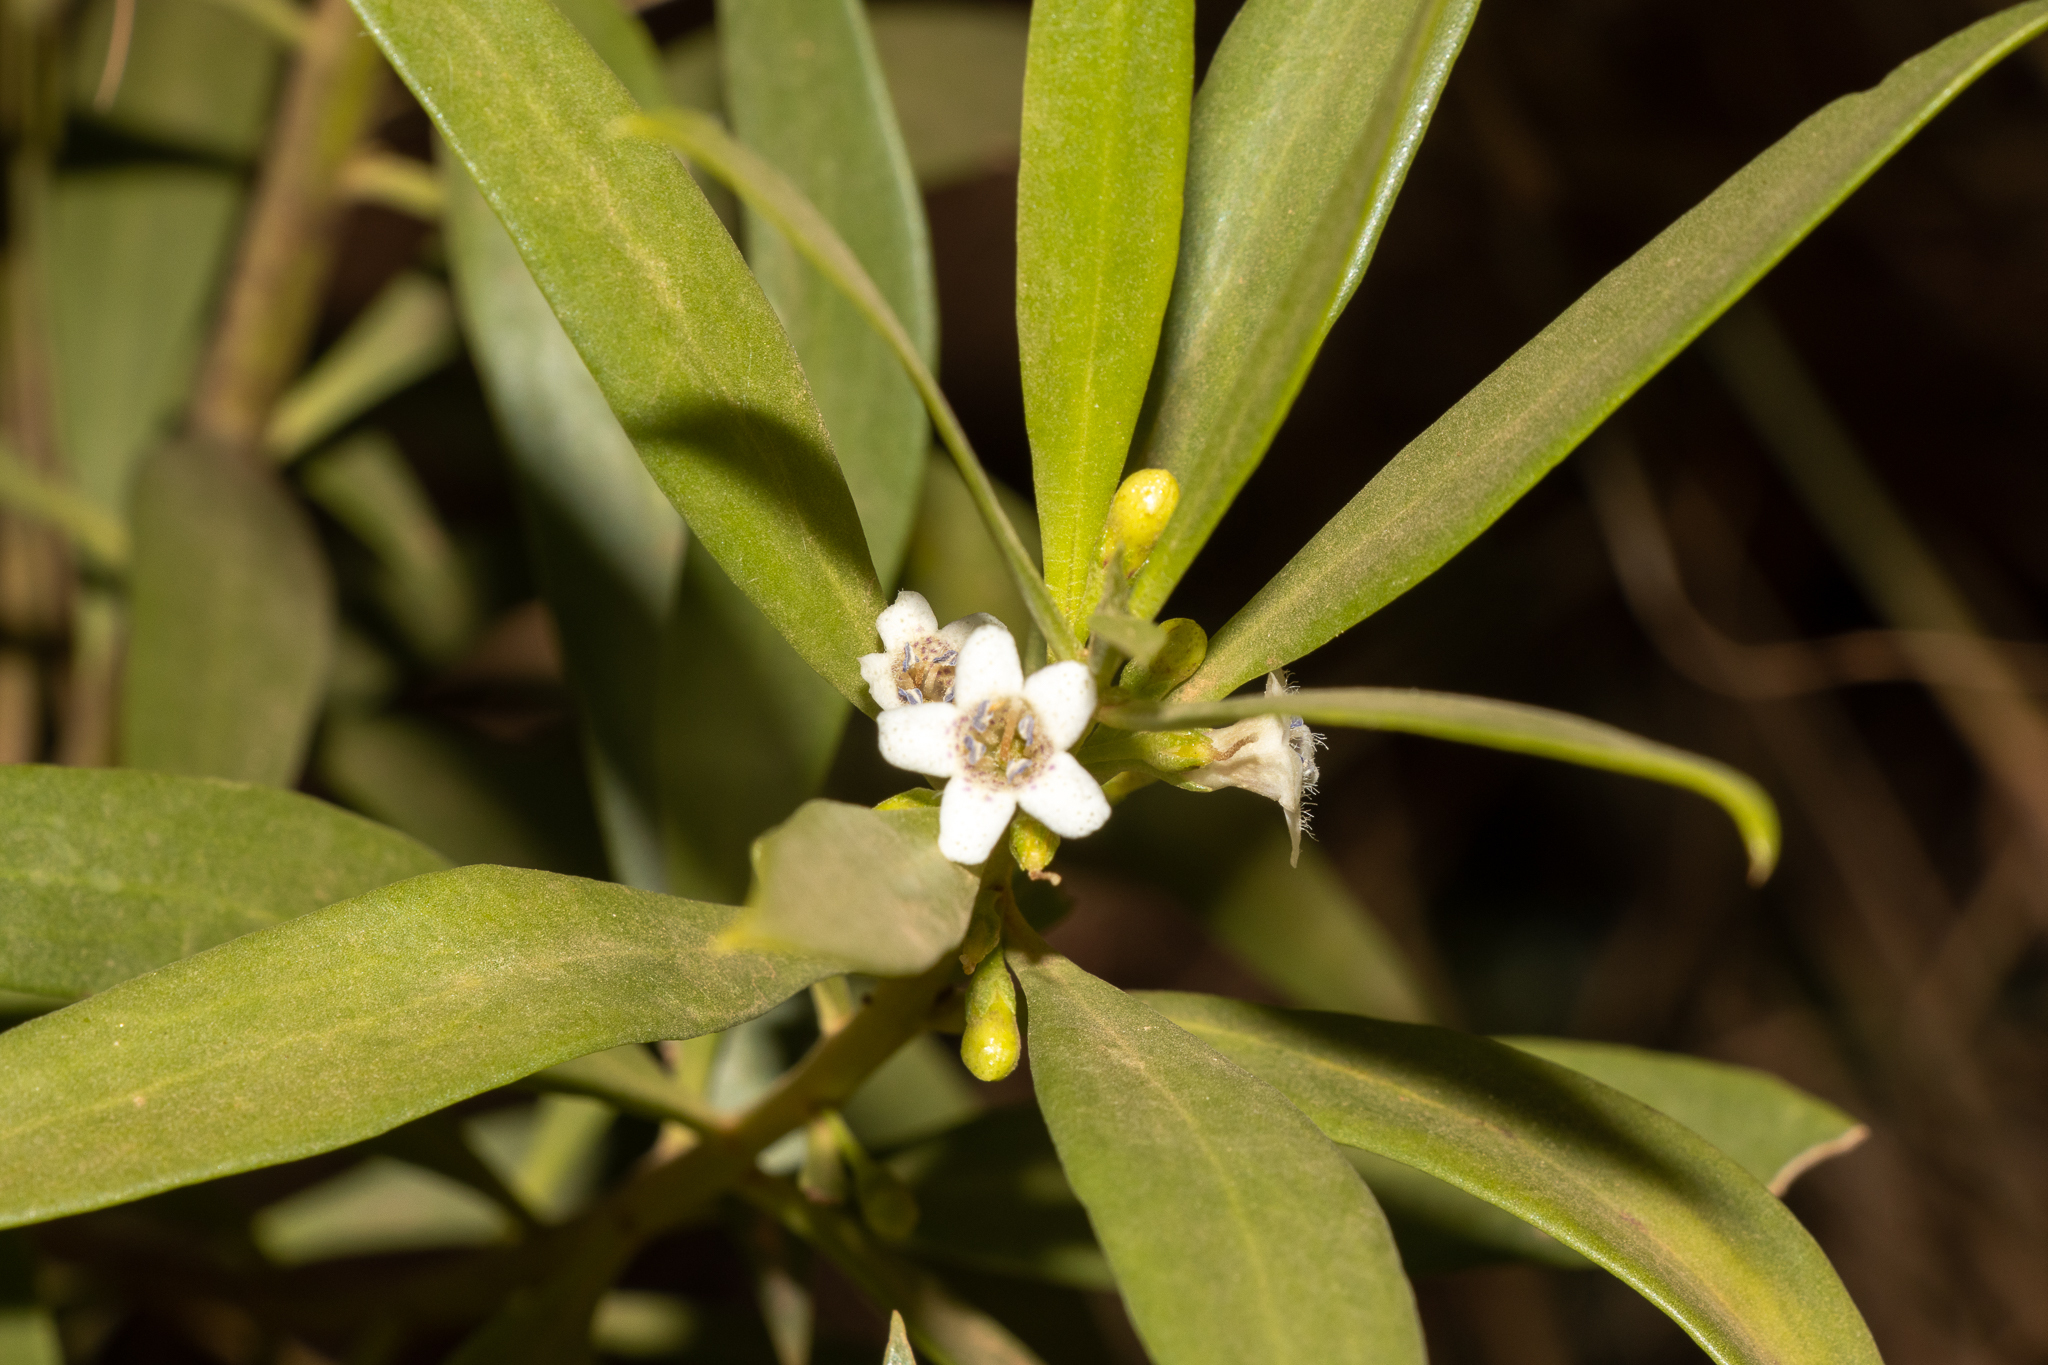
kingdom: Plantae
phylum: Tracheophyta
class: Magnoliopsida
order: Lamiales
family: Scrophulariaceae
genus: Myoporum
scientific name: Myoporum montanum
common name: Waterbush
